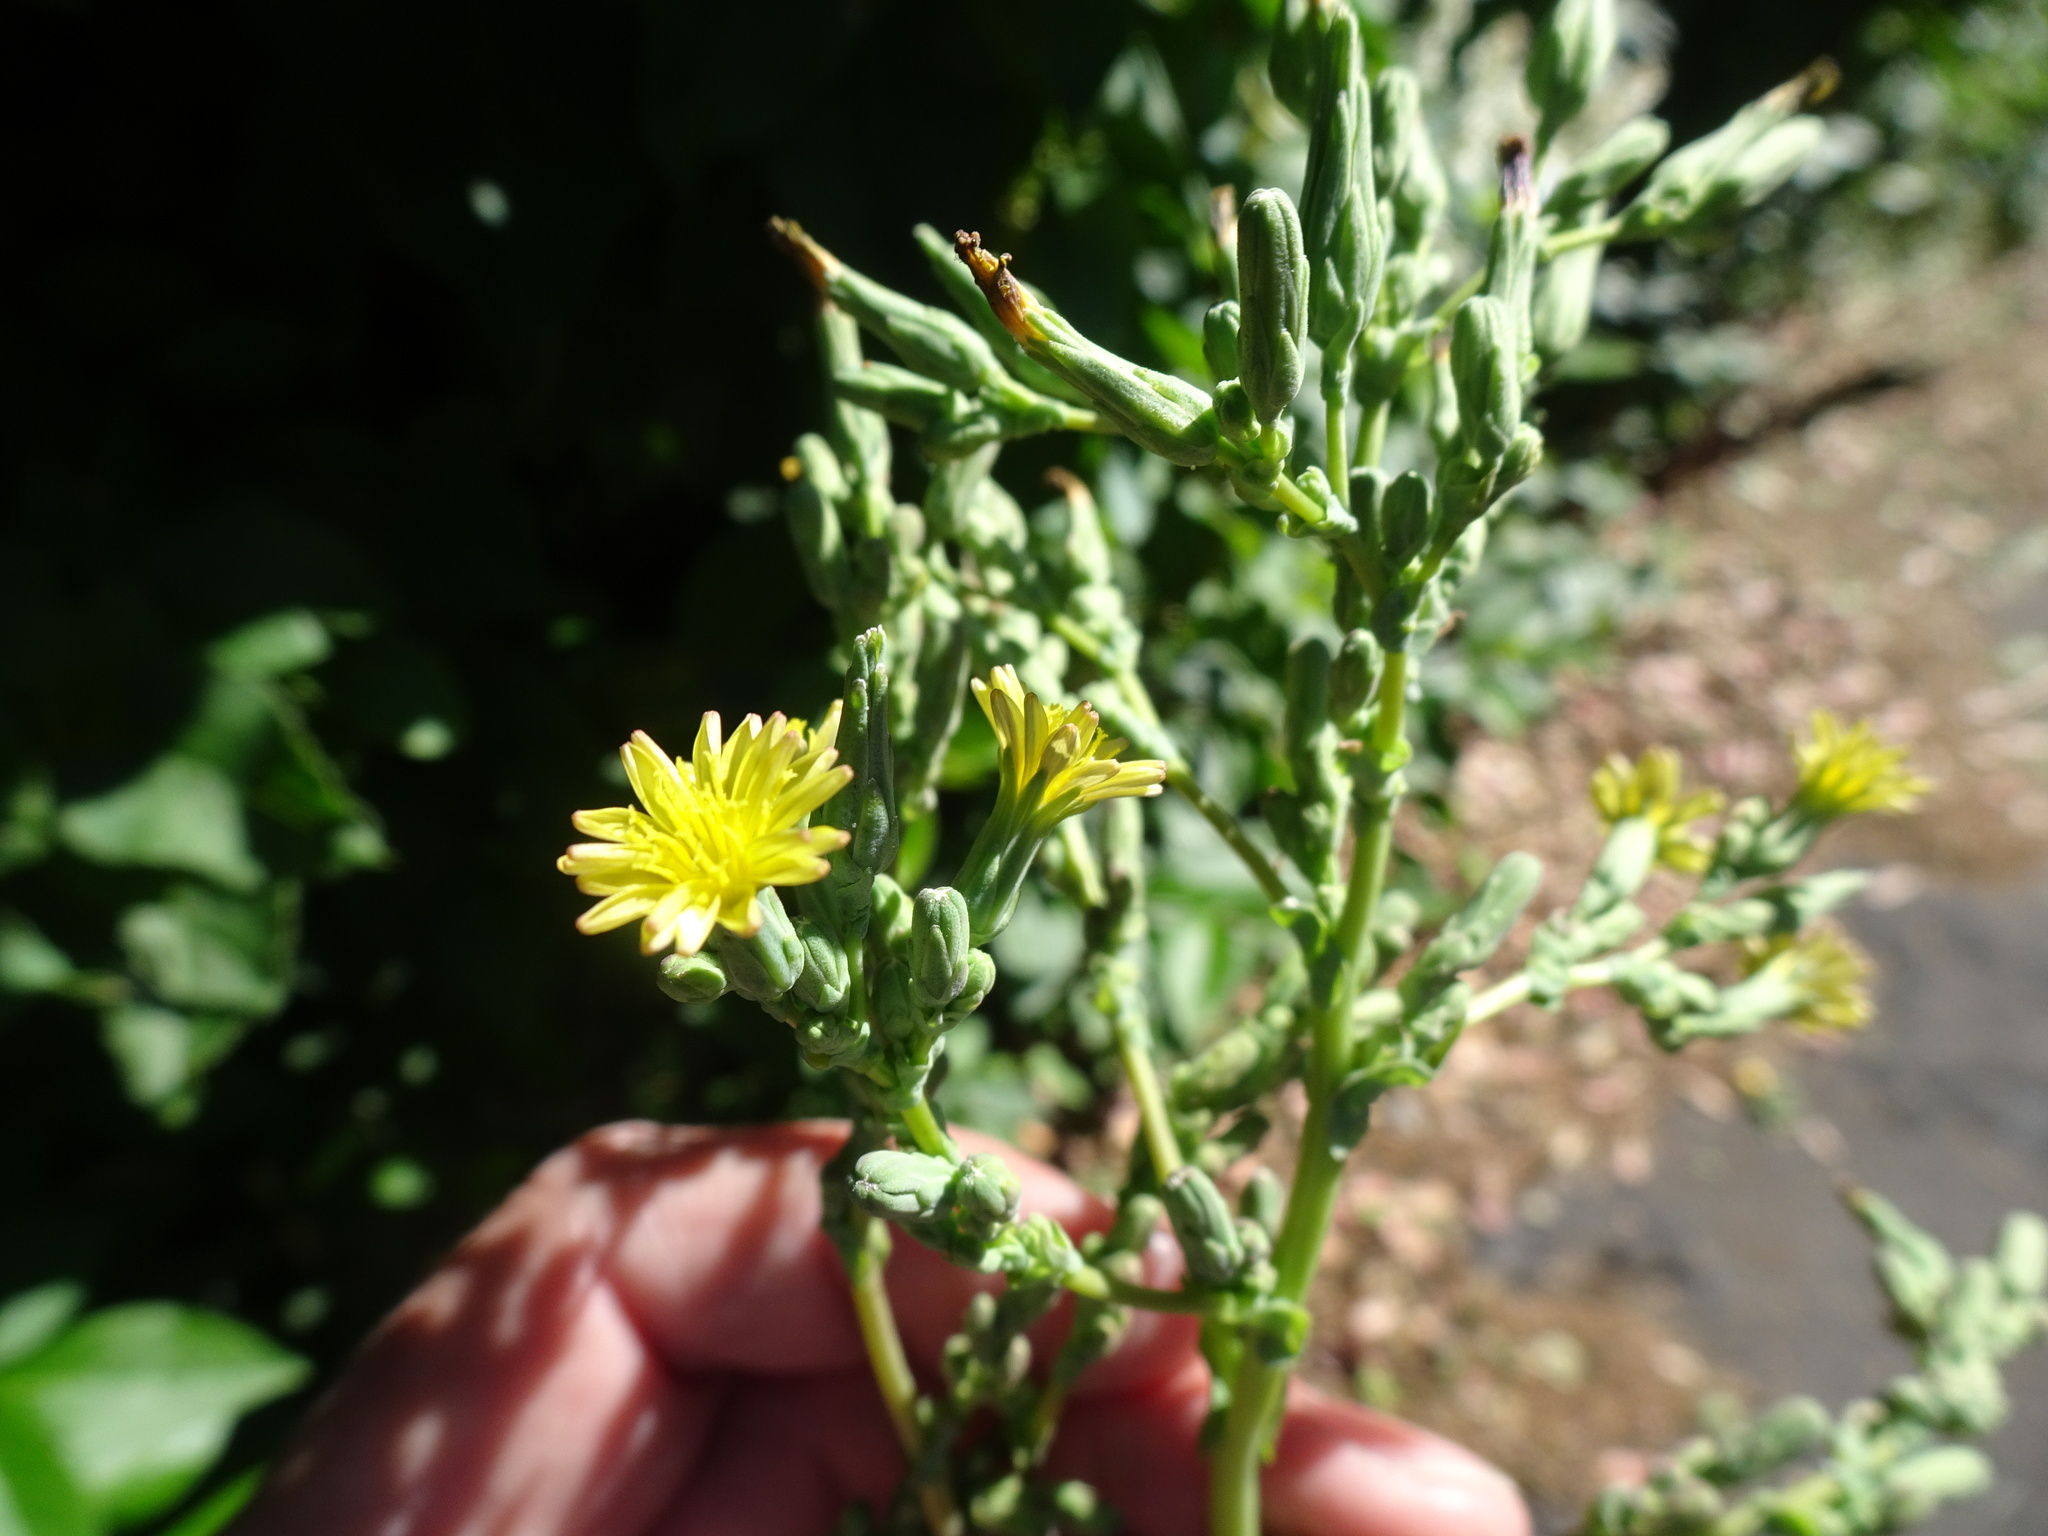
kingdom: Plantae
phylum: Tracheophyta
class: Magnoliopsida
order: Asterales
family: Asteraceae
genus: Lactuca
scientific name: Lactuca serriola
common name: Prickly lettuce
